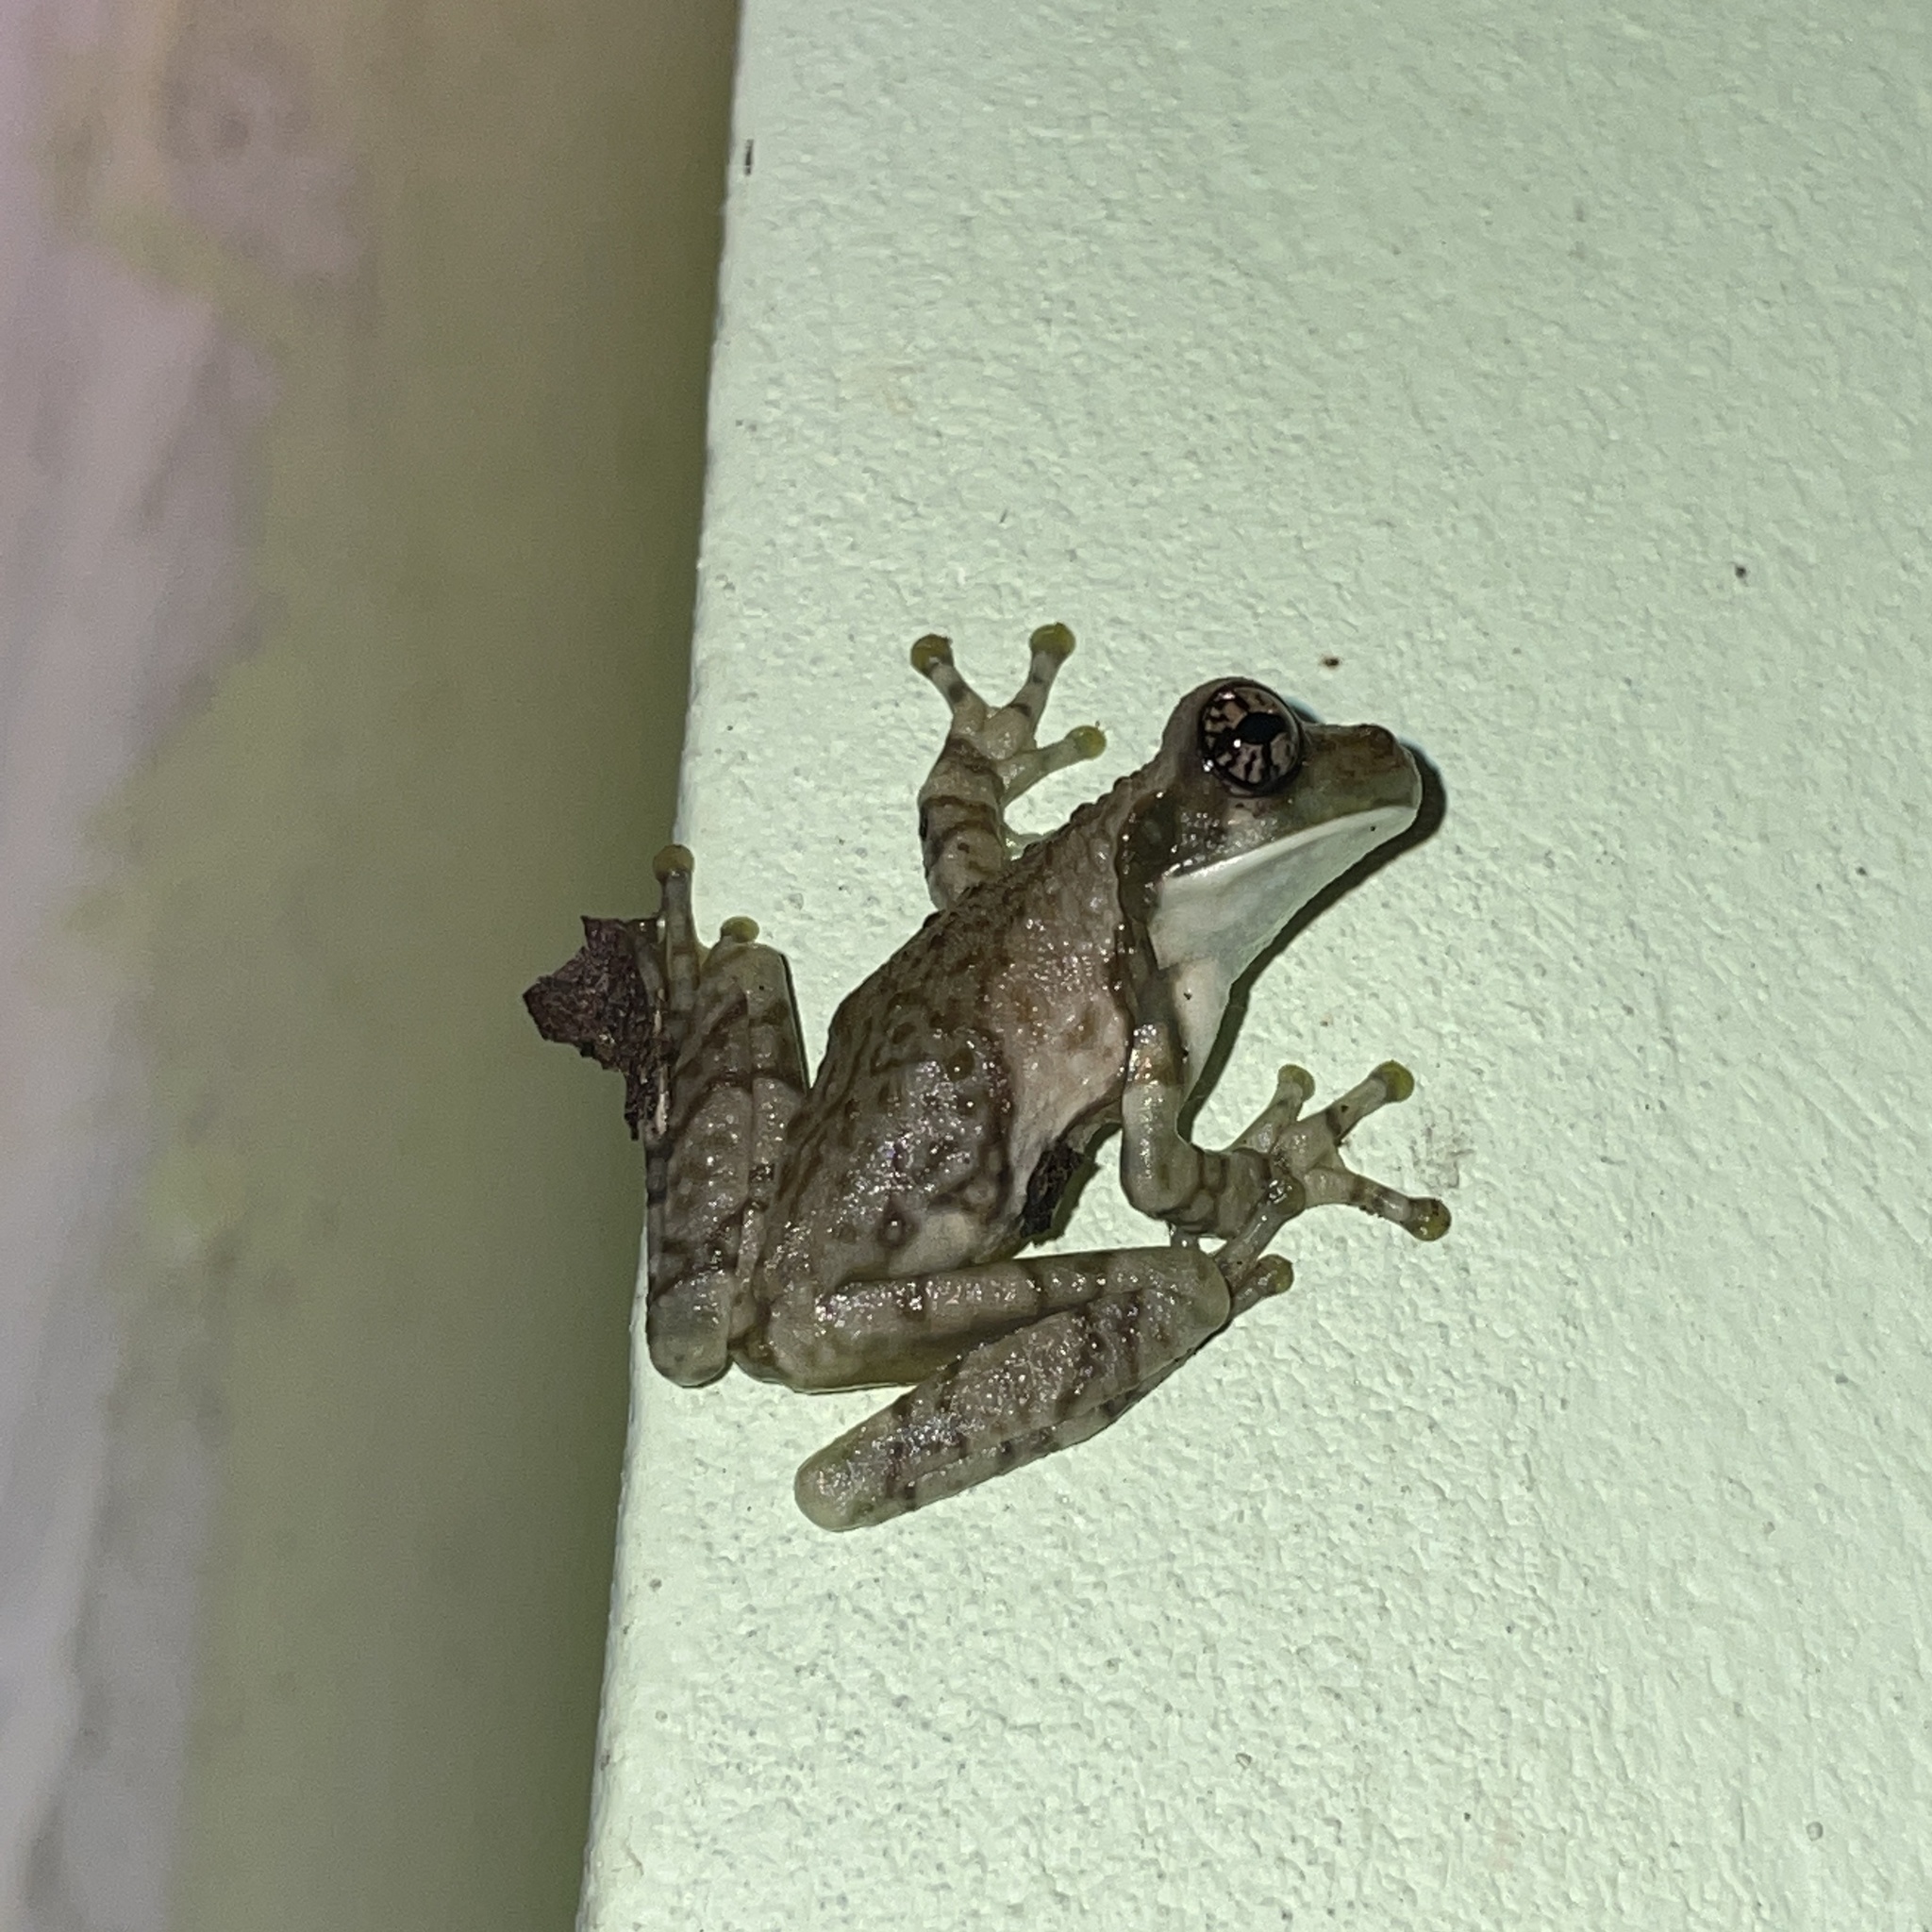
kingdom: Animalia
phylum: Chordata
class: Amphibia
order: Anura
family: Hylidae
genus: Trachycephalus
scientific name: Trachycephalus typhonius
